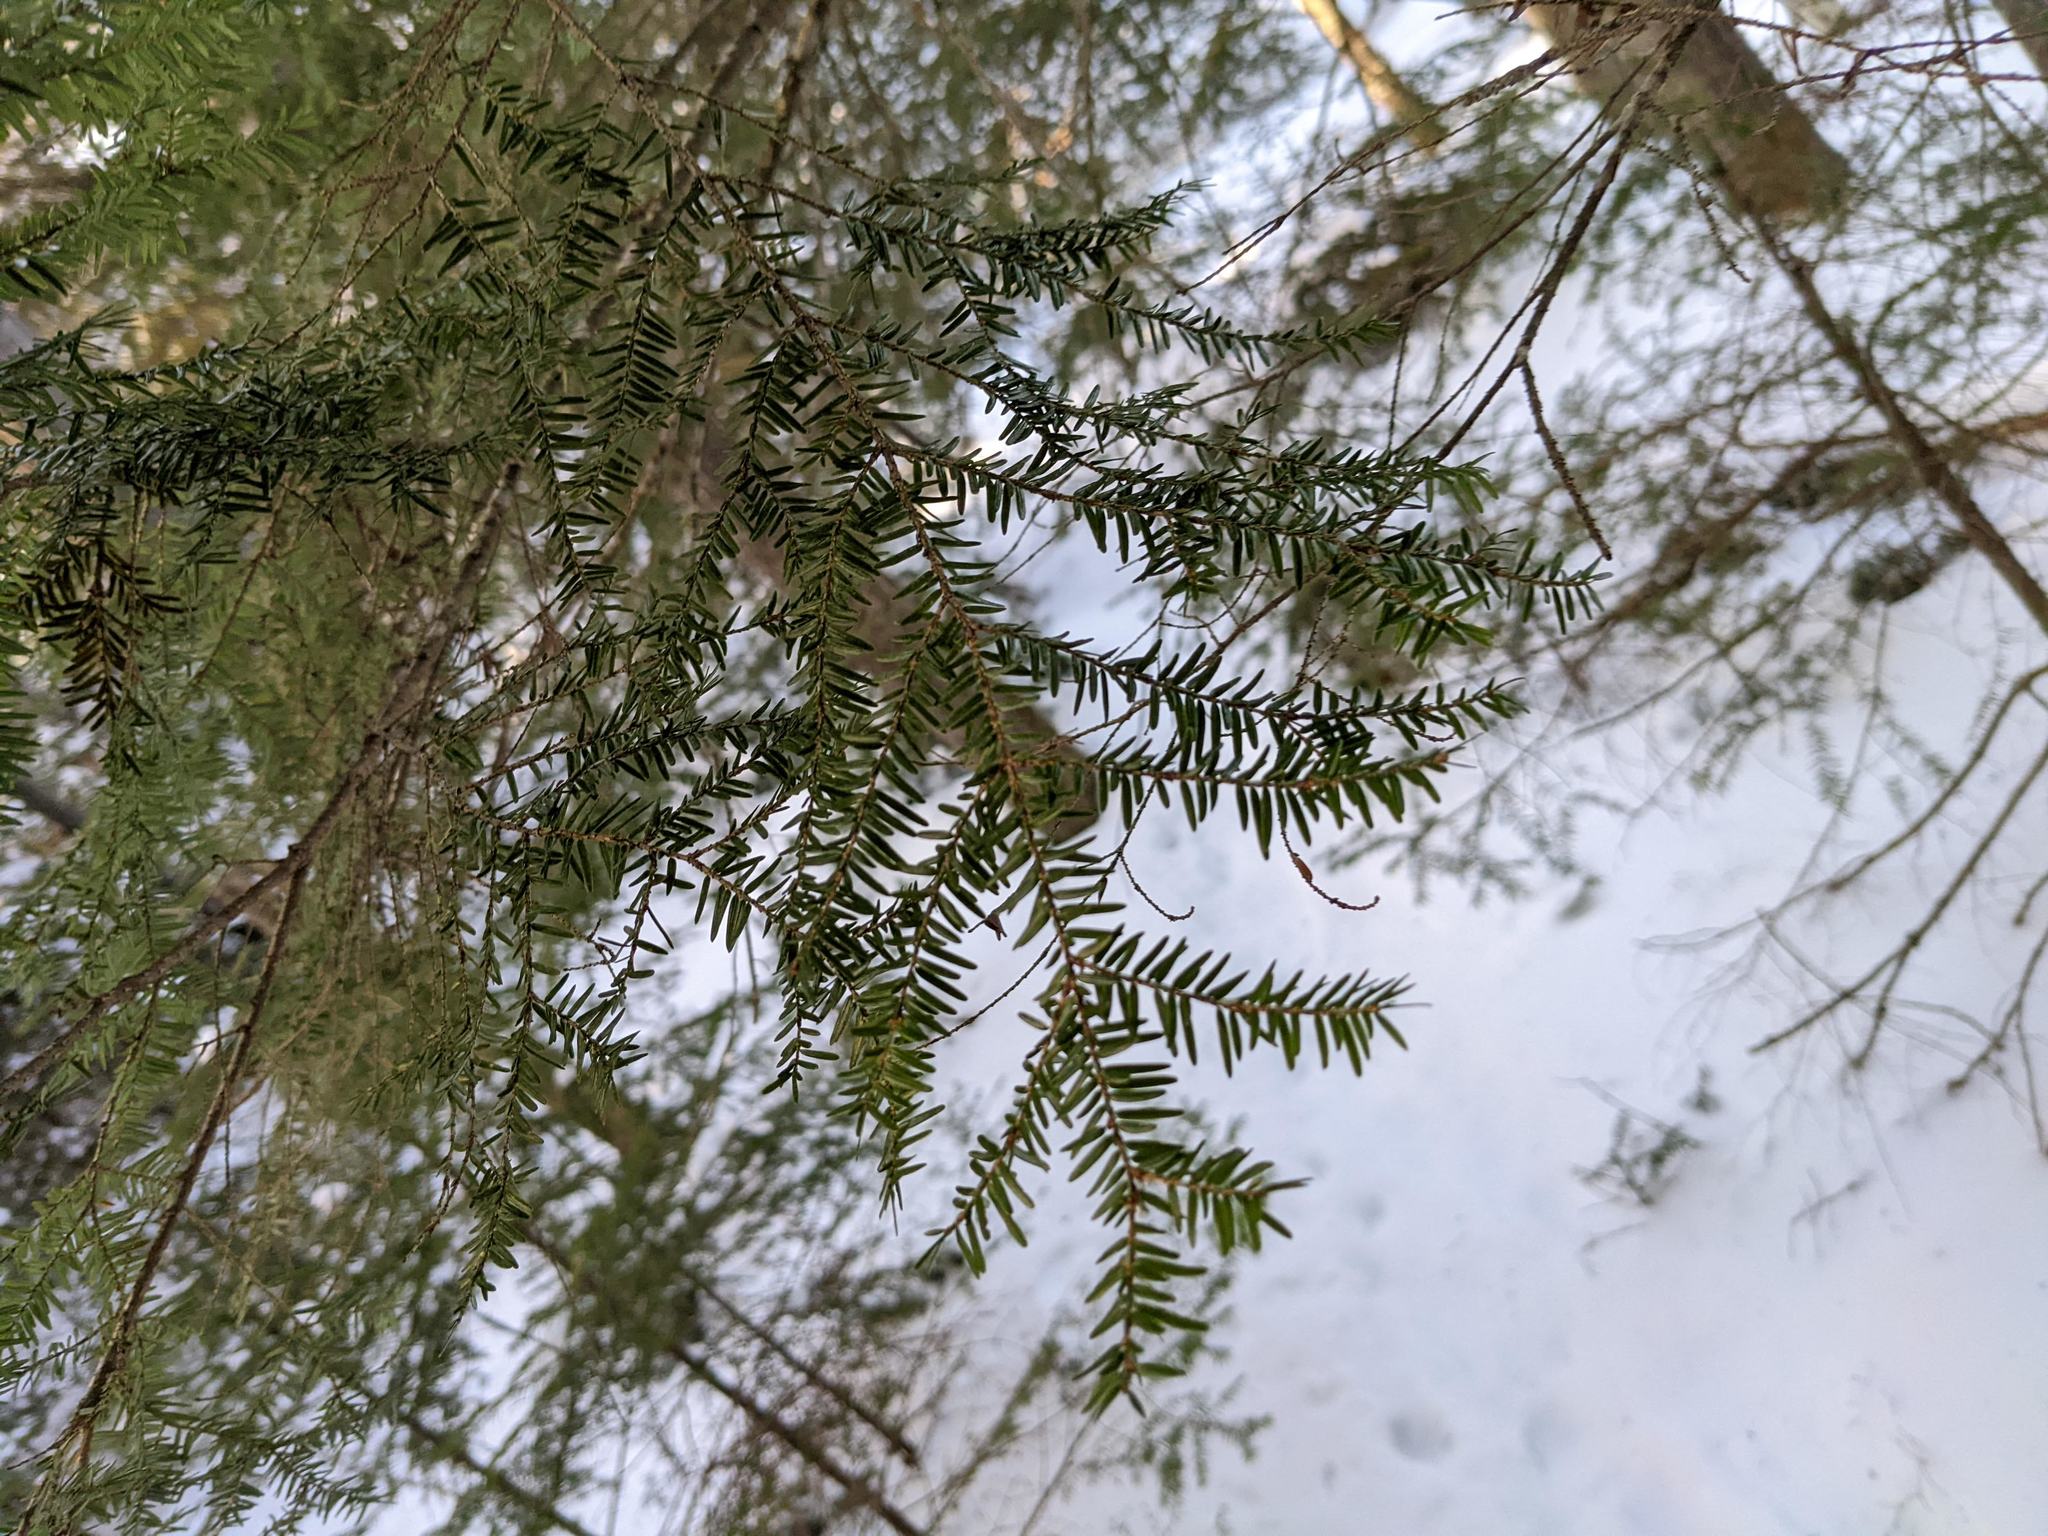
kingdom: Plantae
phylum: Tracheophyta
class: Pinopsida
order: Pinales
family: Pinaceae
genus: Tsuga
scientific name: Tsuga canadensis
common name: Eastern hemlock
